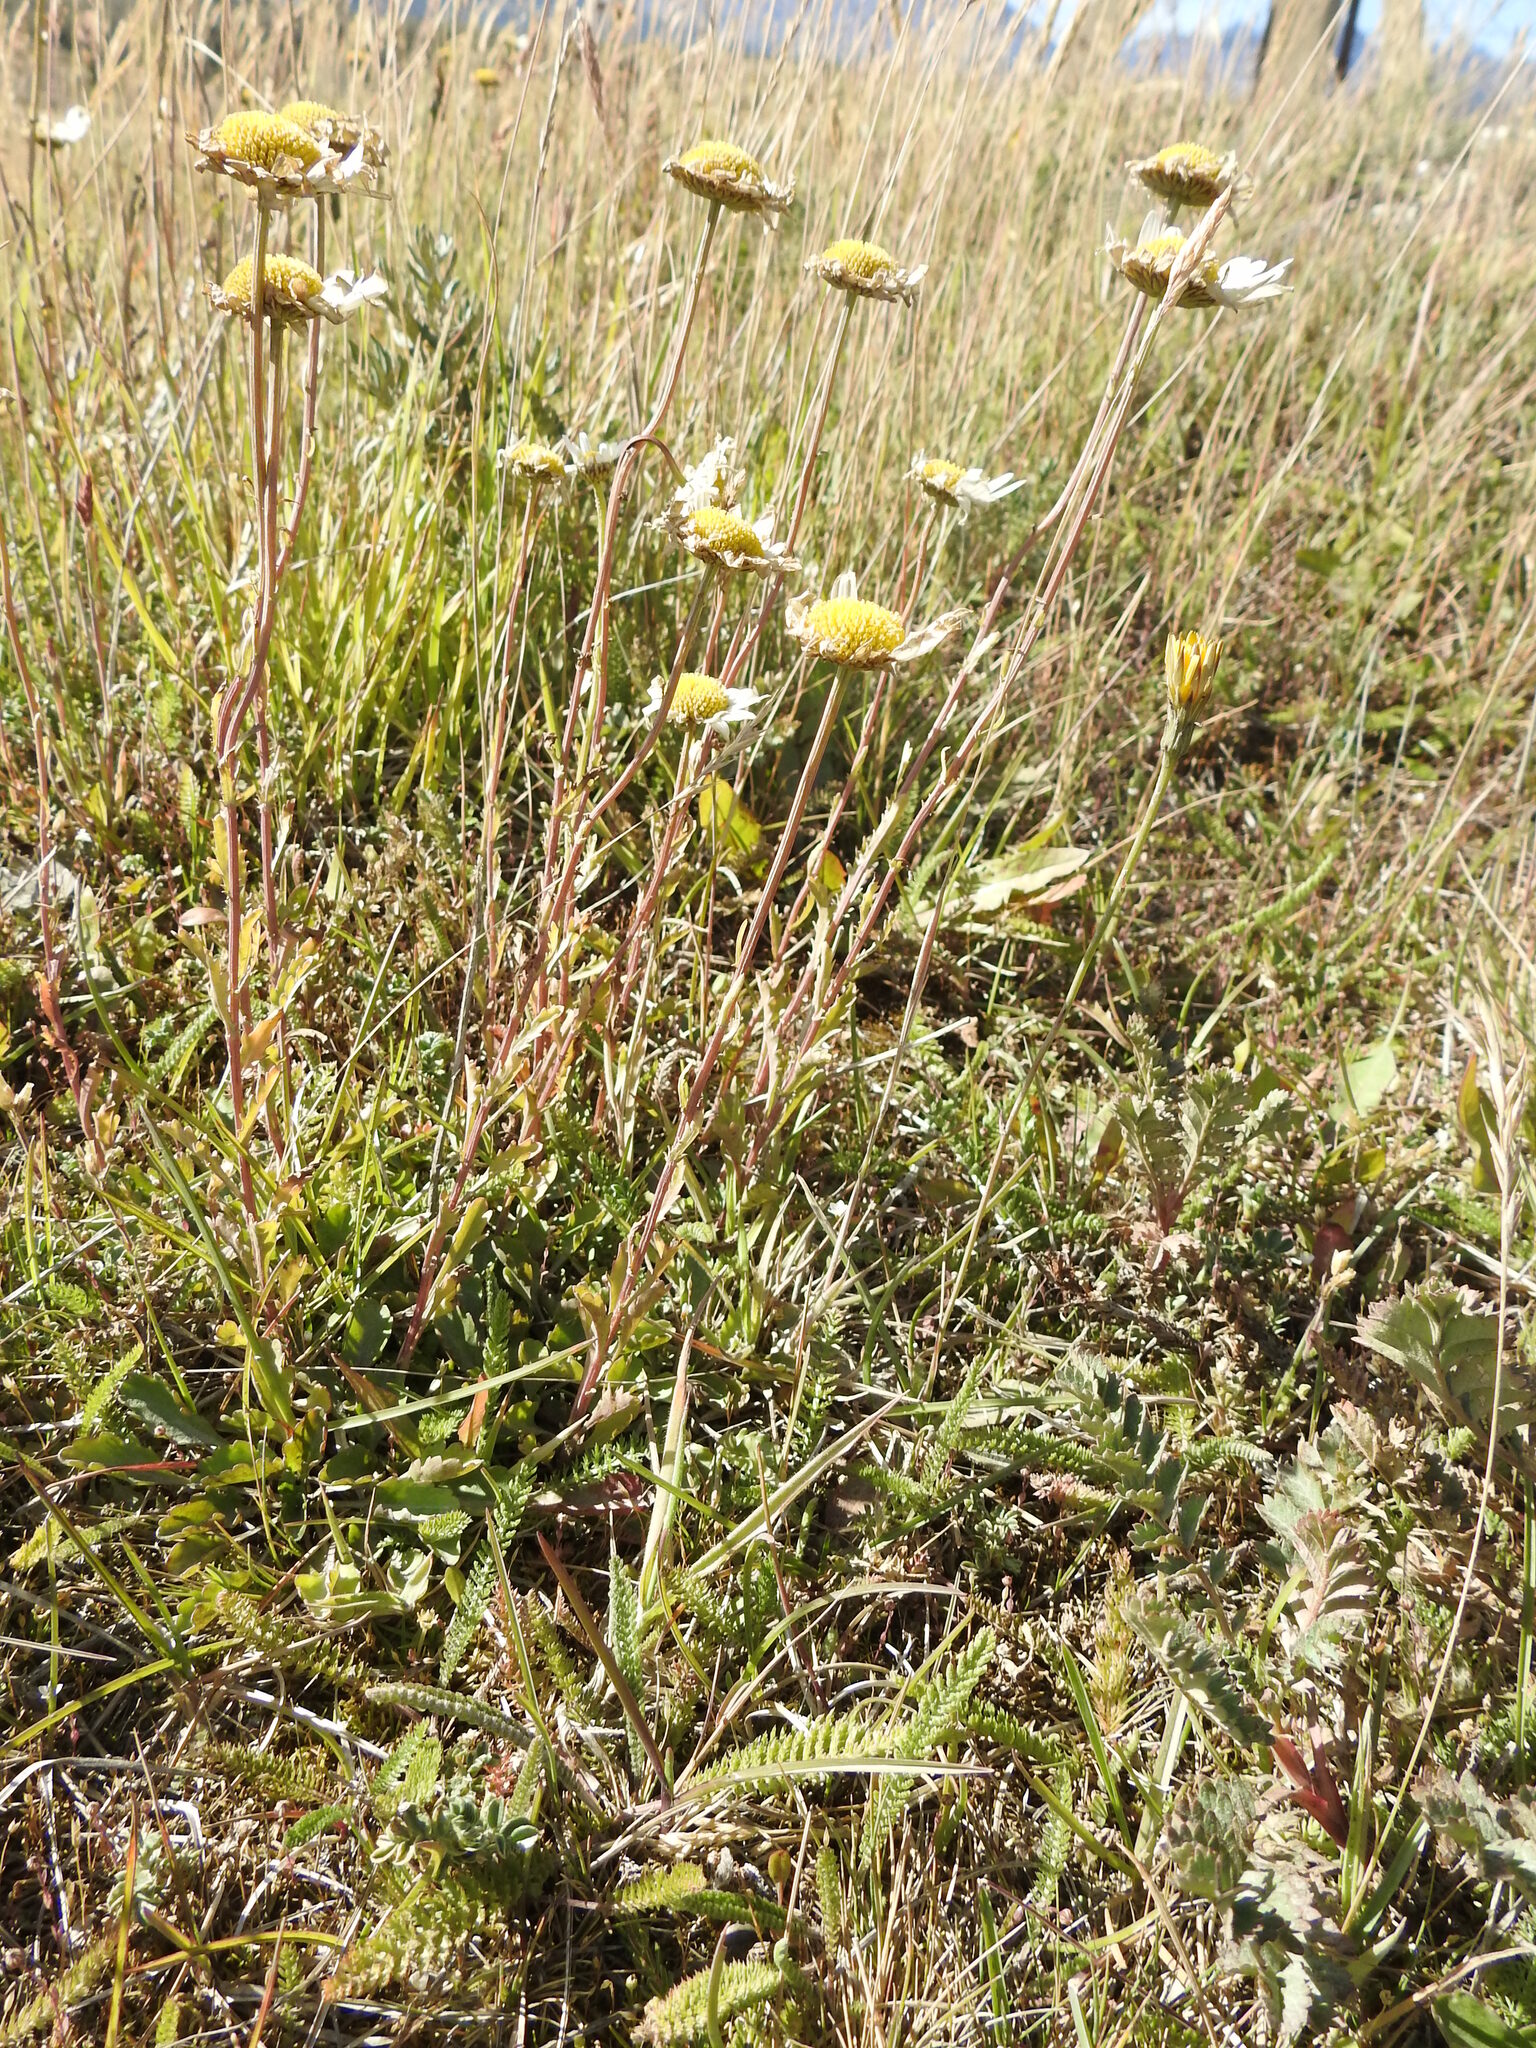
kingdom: Plantae
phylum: Tracheophyta
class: Magnoliopsida
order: Asterales
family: Asteraceae
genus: Leucanthemum
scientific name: Leucanthemum vulgare
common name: Oxeye daisy
